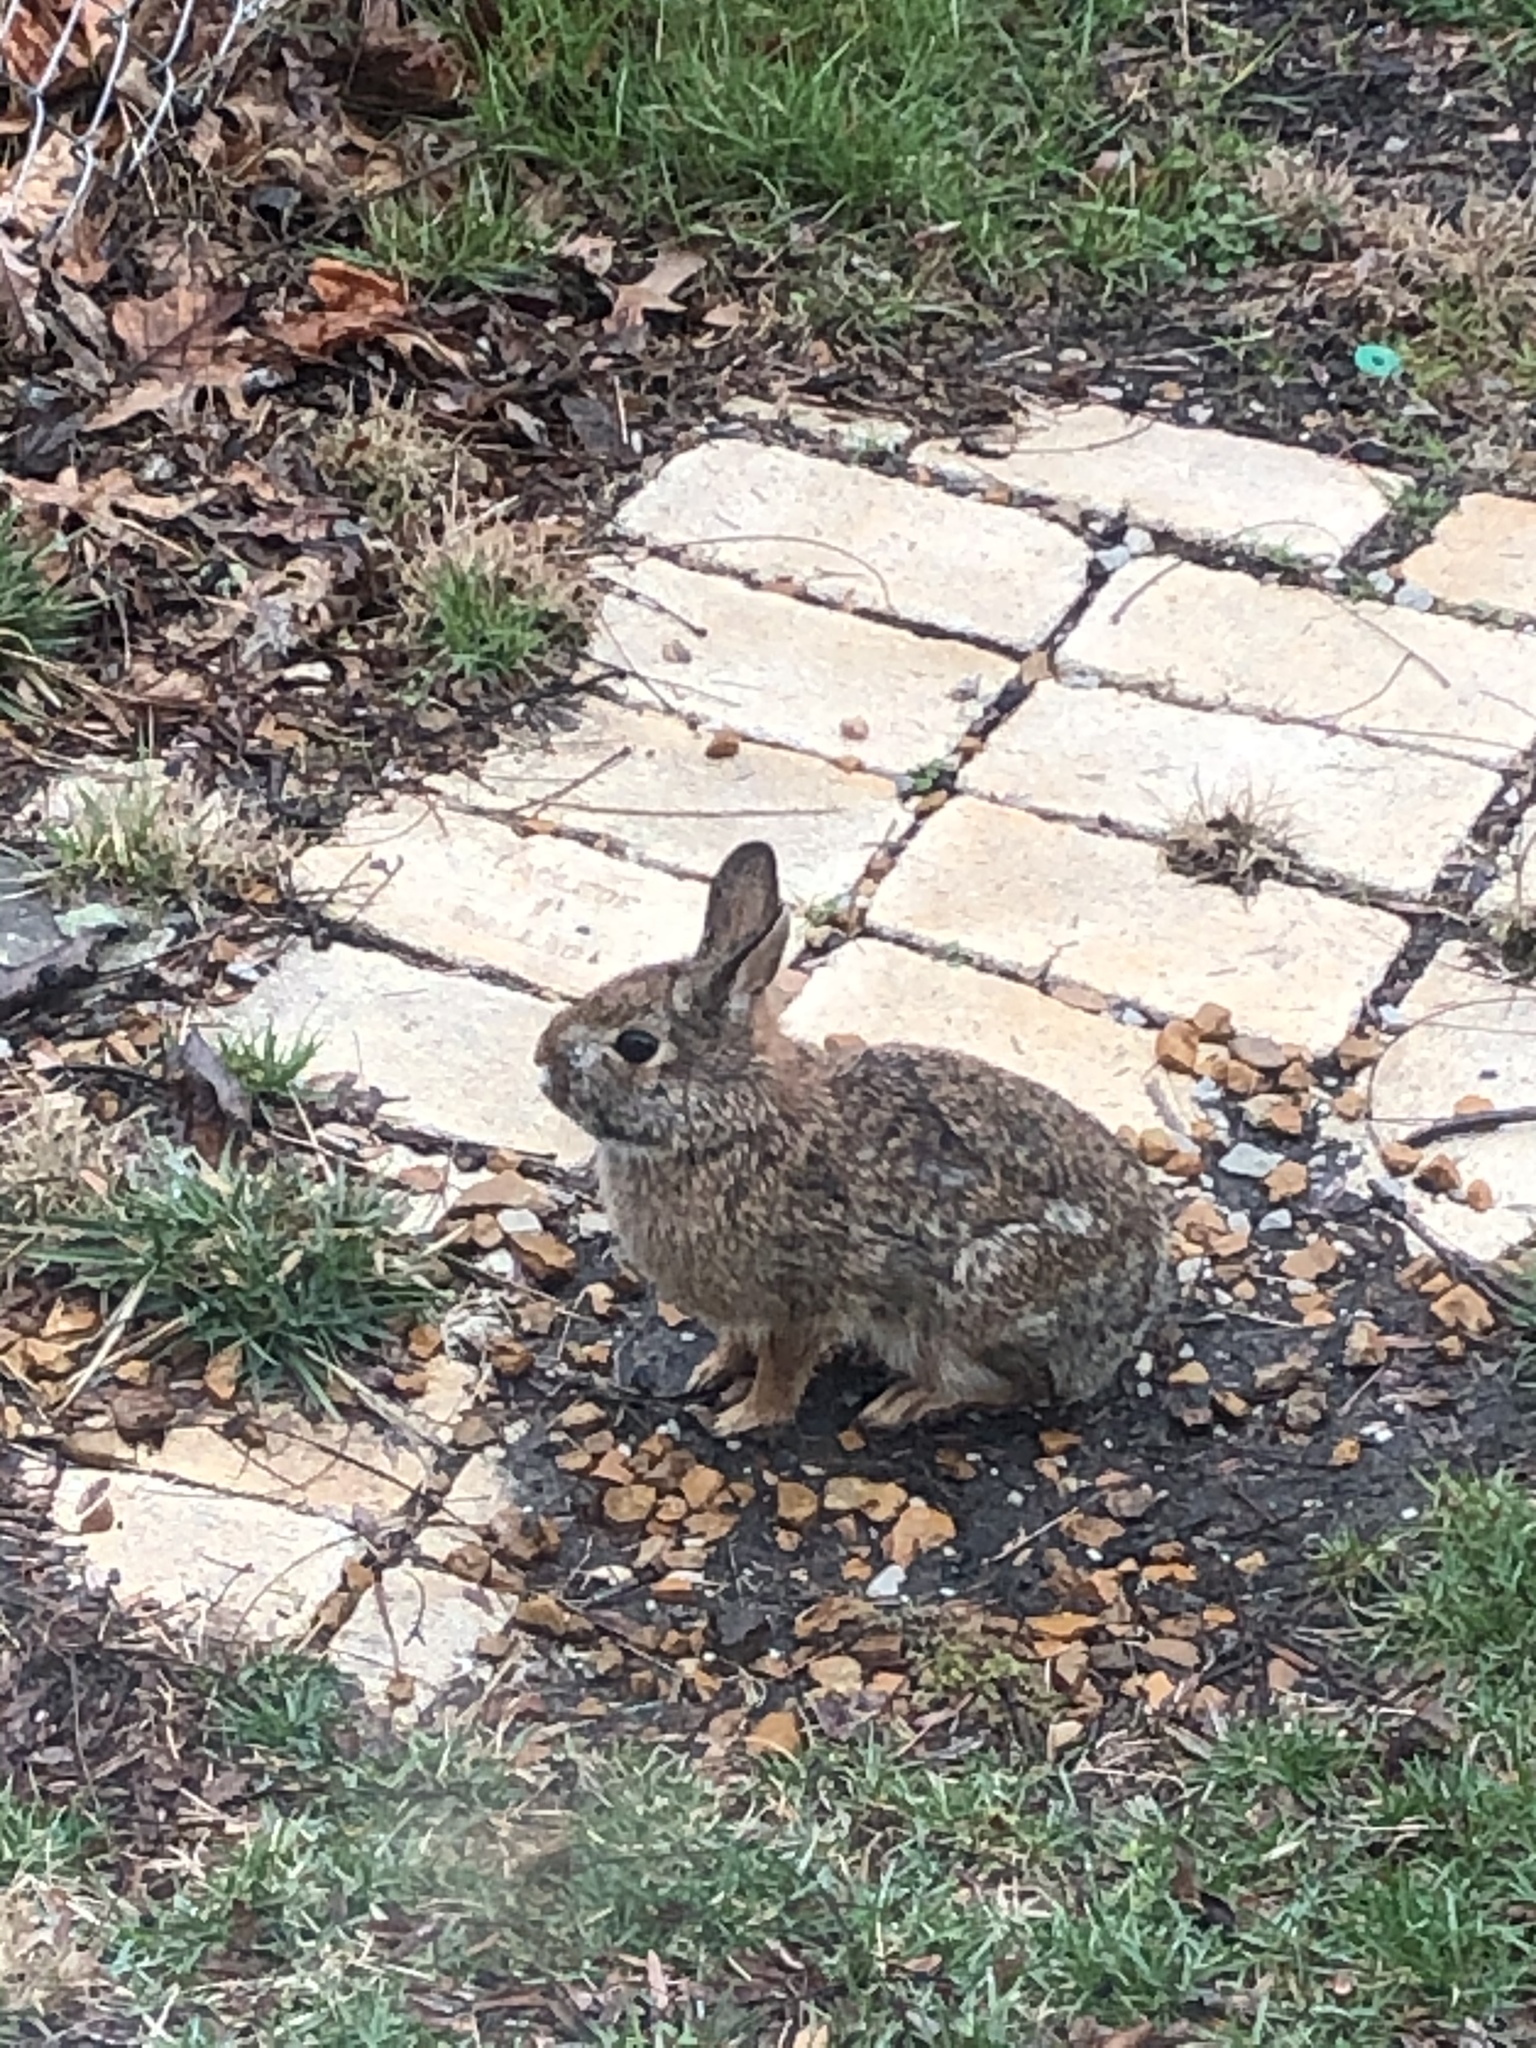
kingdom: Animalia
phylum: Chordata
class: Mammalia
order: Lagomorpha
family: Leporidae
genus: Sylvilagus
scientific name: Sylvilagus floridanus
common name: Eastern cottontail
